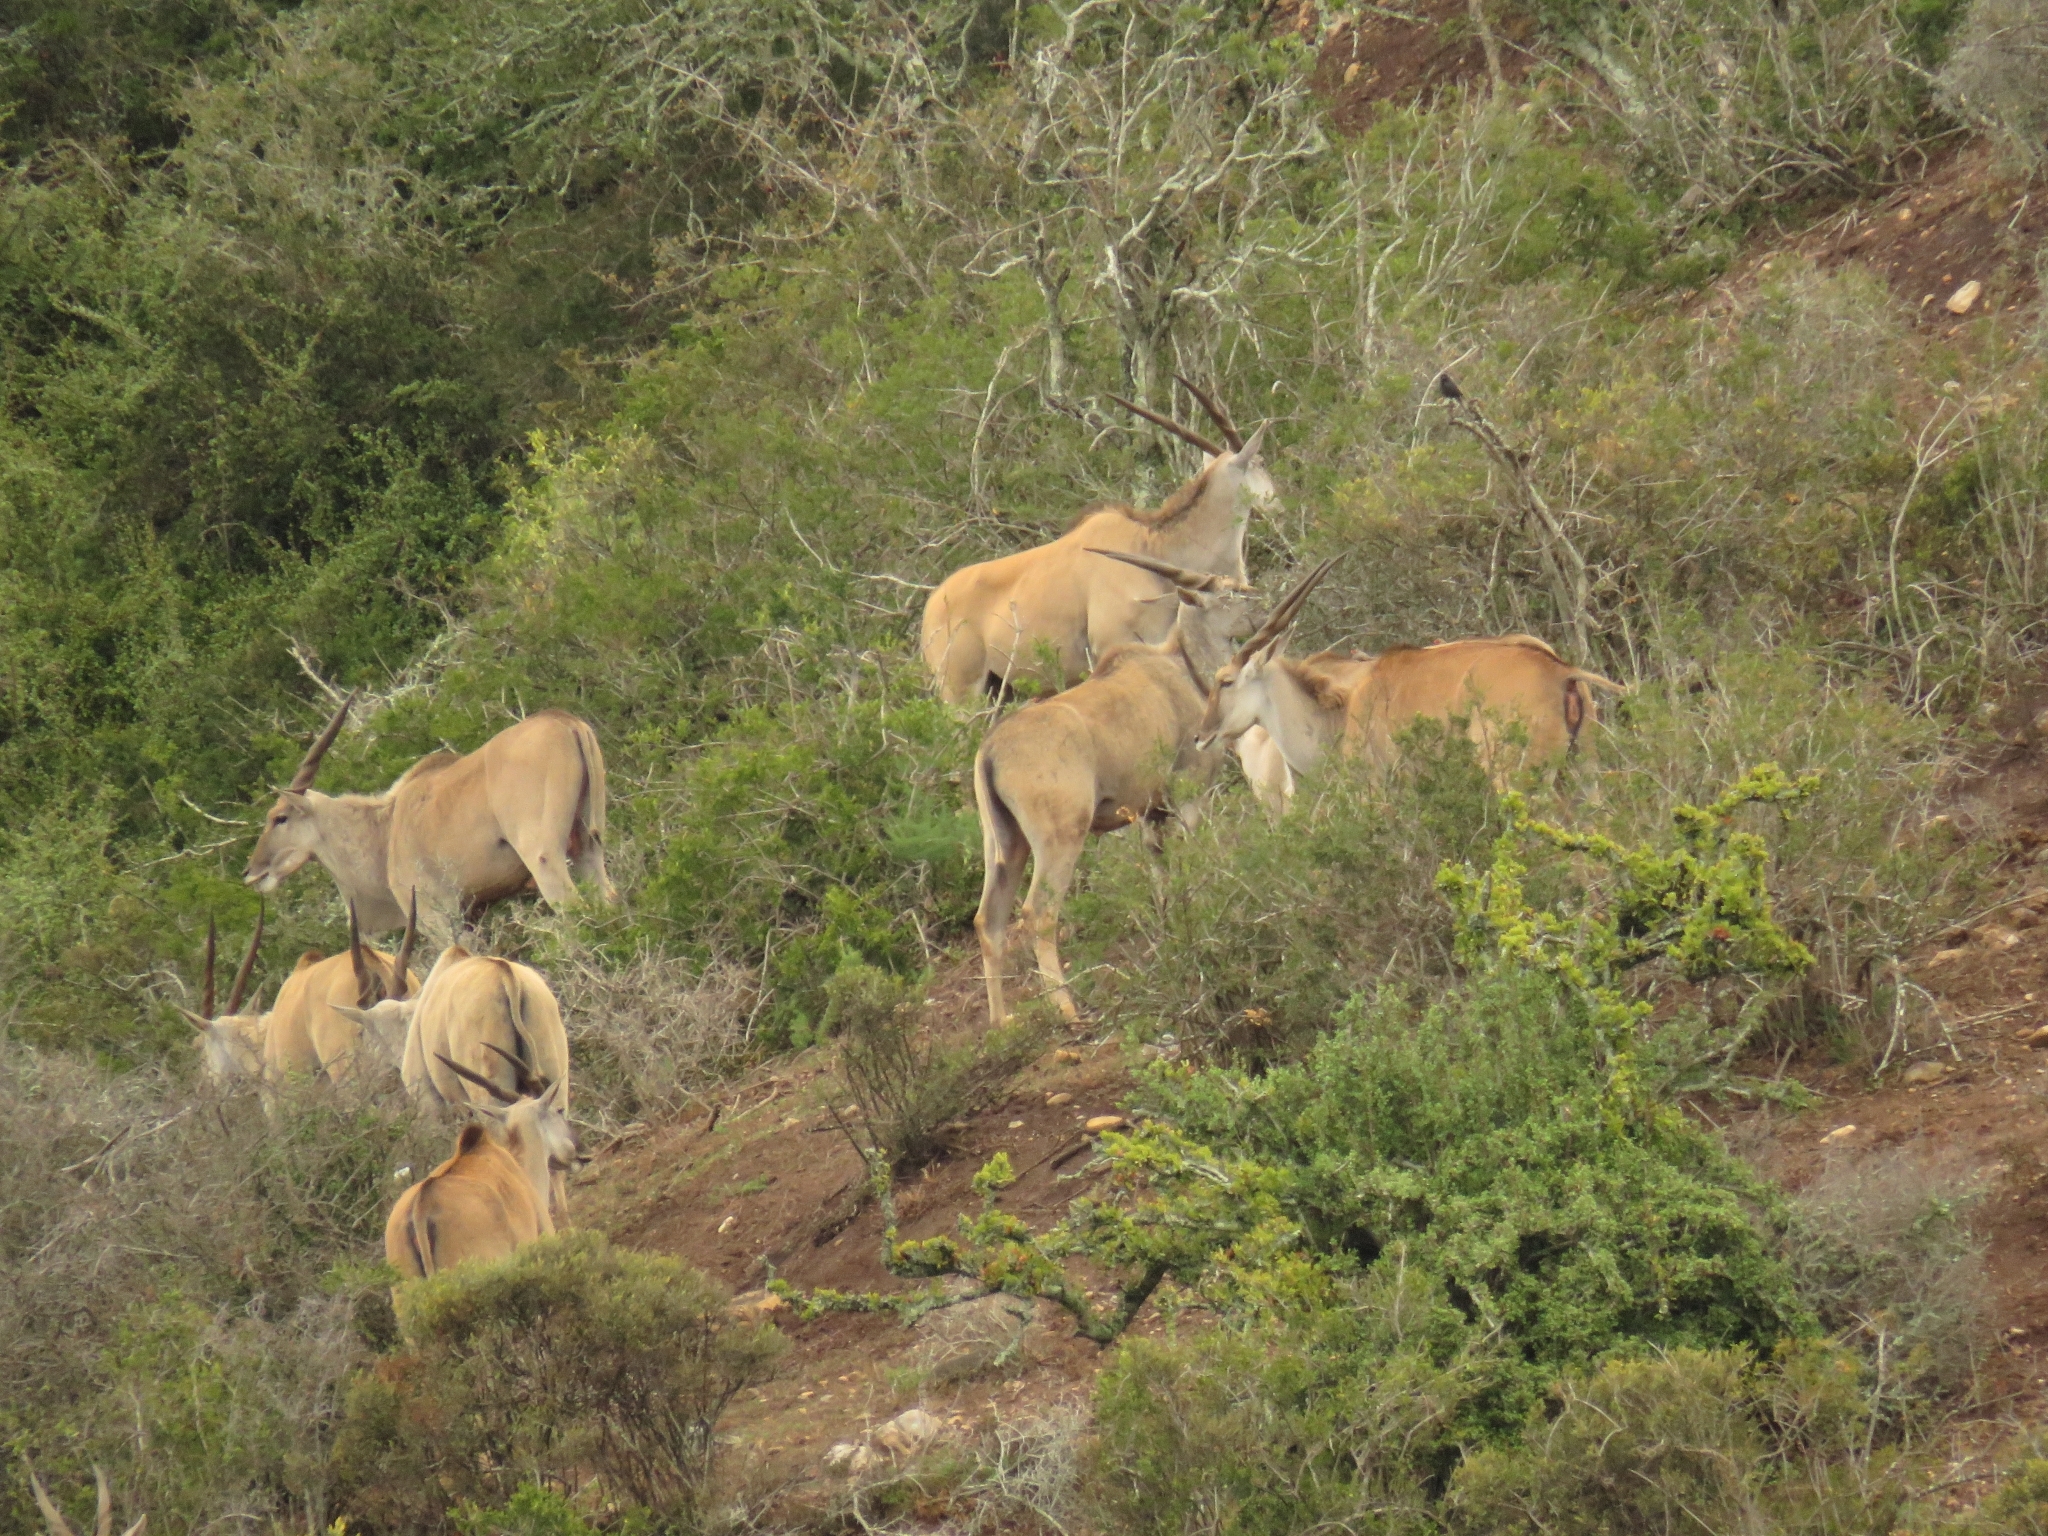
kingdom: Animalia
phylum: Chordata
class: Mammalia
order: Artiodactyla
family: Bovidae
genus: Taurotragus
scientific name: Taurotragus oryx
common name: Common eland
